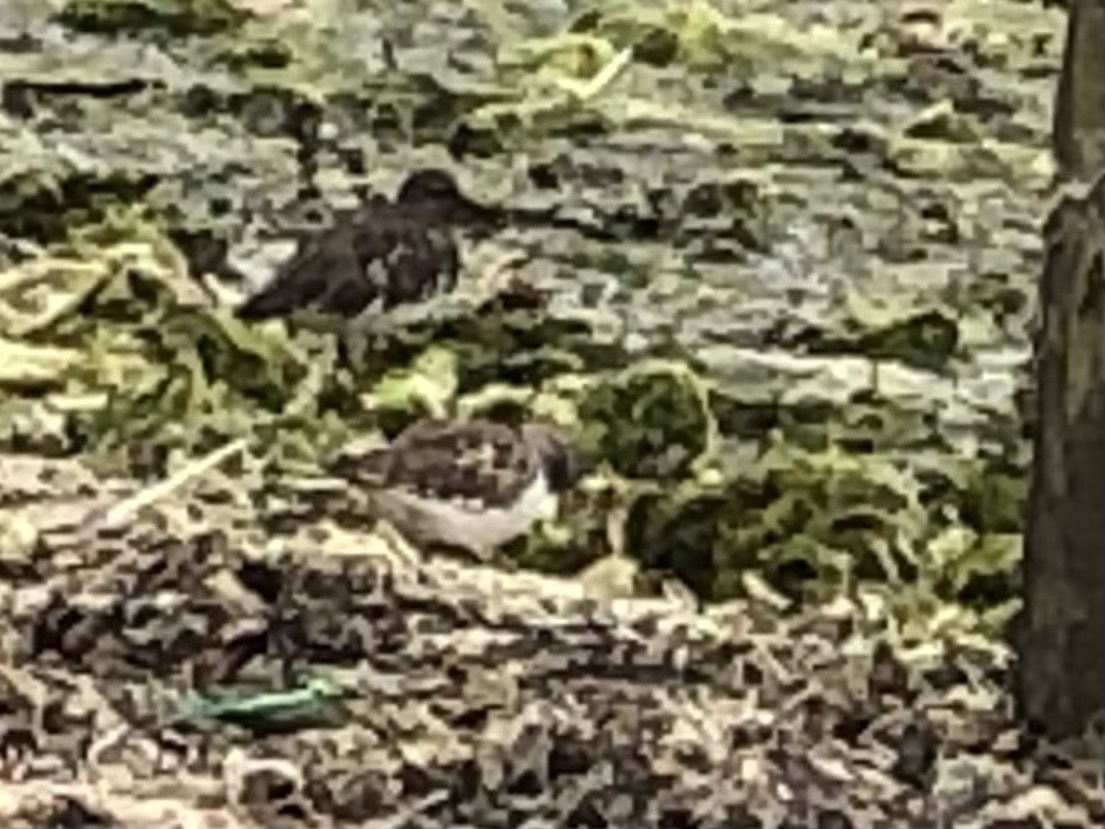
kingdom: Animalia
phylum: Chordata
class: Aves
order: Charadriiformes
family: Scolopacidae
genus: Arenaria
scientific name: Arenaria melanocephala
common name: Black turnstone
